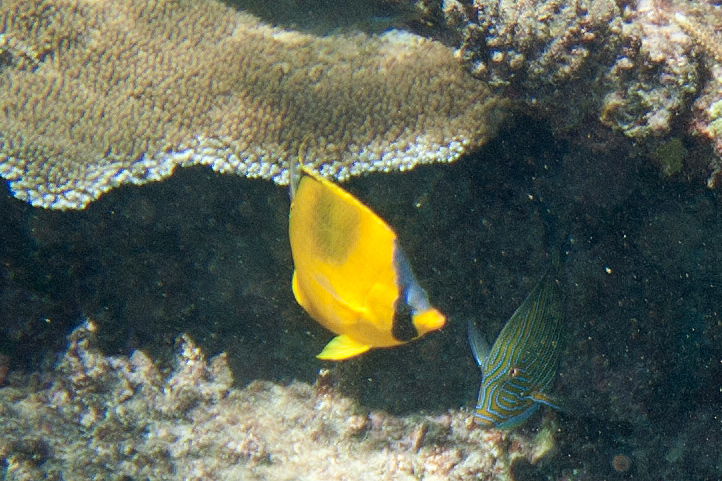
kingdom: Animalia
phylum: Chordata
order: Perciformes
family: Chaetodontidae
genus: Chaetodon
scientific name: Chaetodon semeion
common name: Dotted butterflyfish
